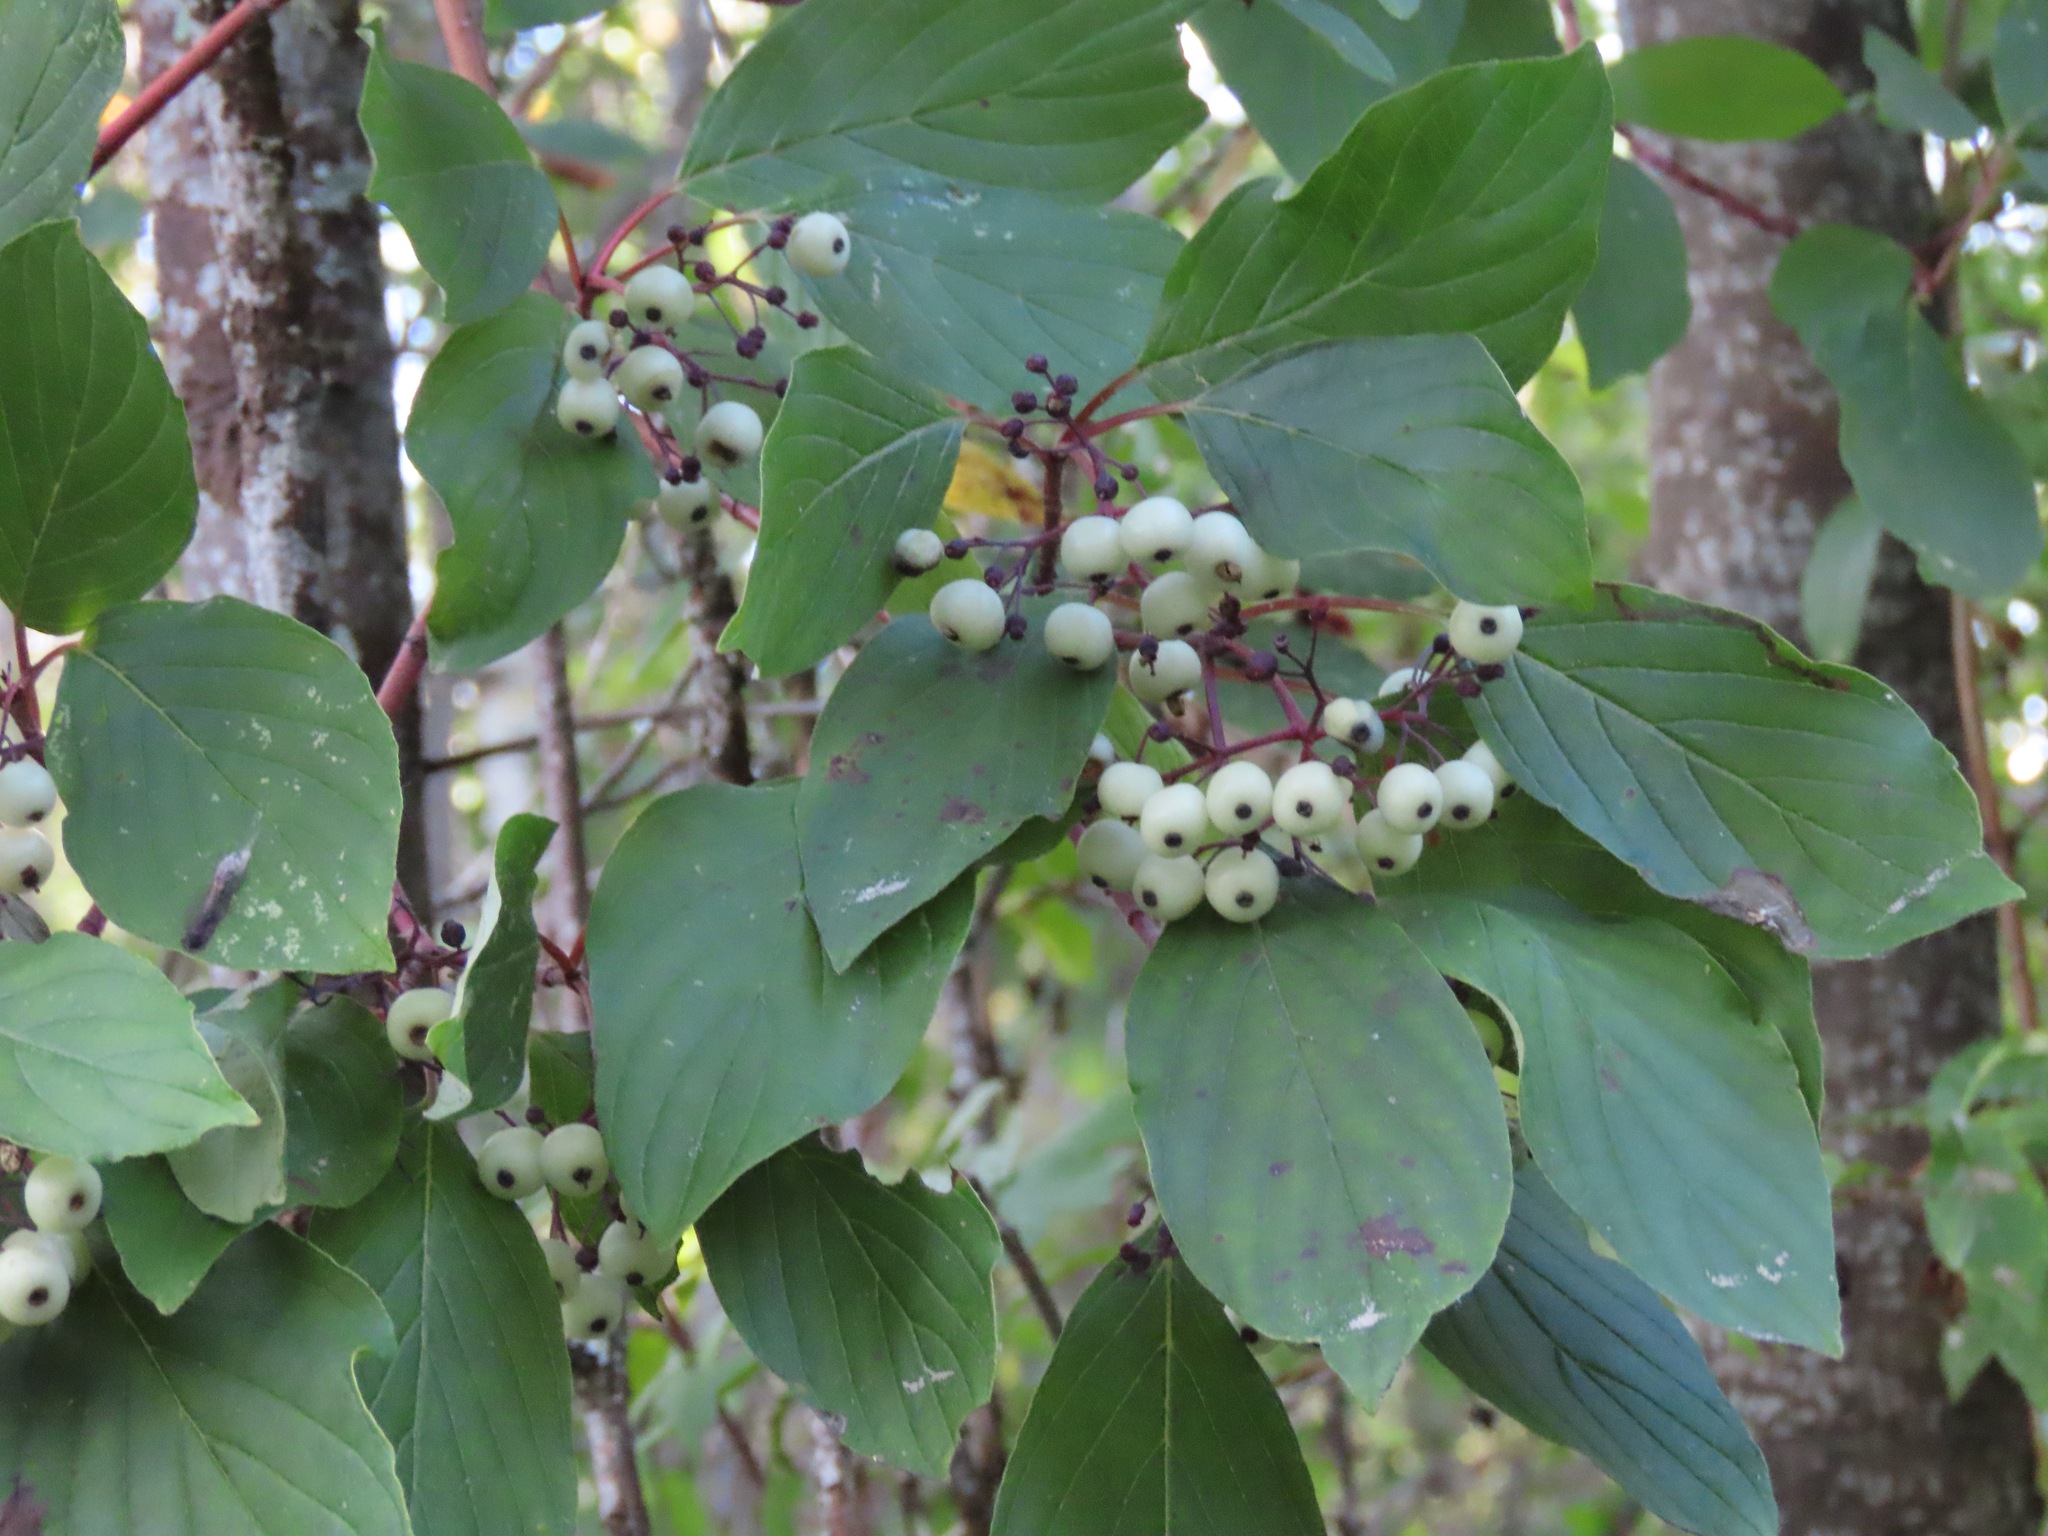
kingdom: Plantae
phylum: Tracheophyta
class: Magnoliopsida
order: Cornales
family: Cornaceae
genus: Cornus
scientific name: Cornus sericea
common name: Red-osier dogwood
